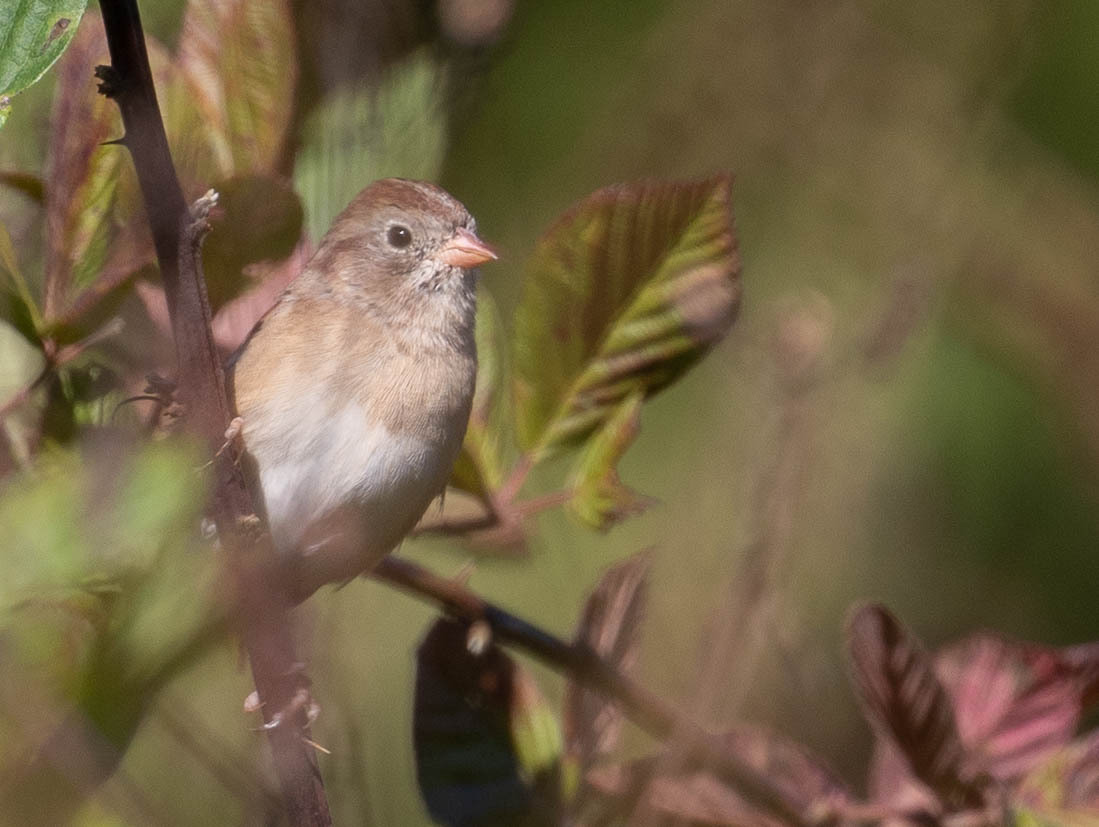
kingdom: Animalia
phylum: Chordata
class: Aves
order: Passeriformes
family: Passerellidae
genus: Spizella
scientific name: Spizella pusilla
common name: Field sparrow
